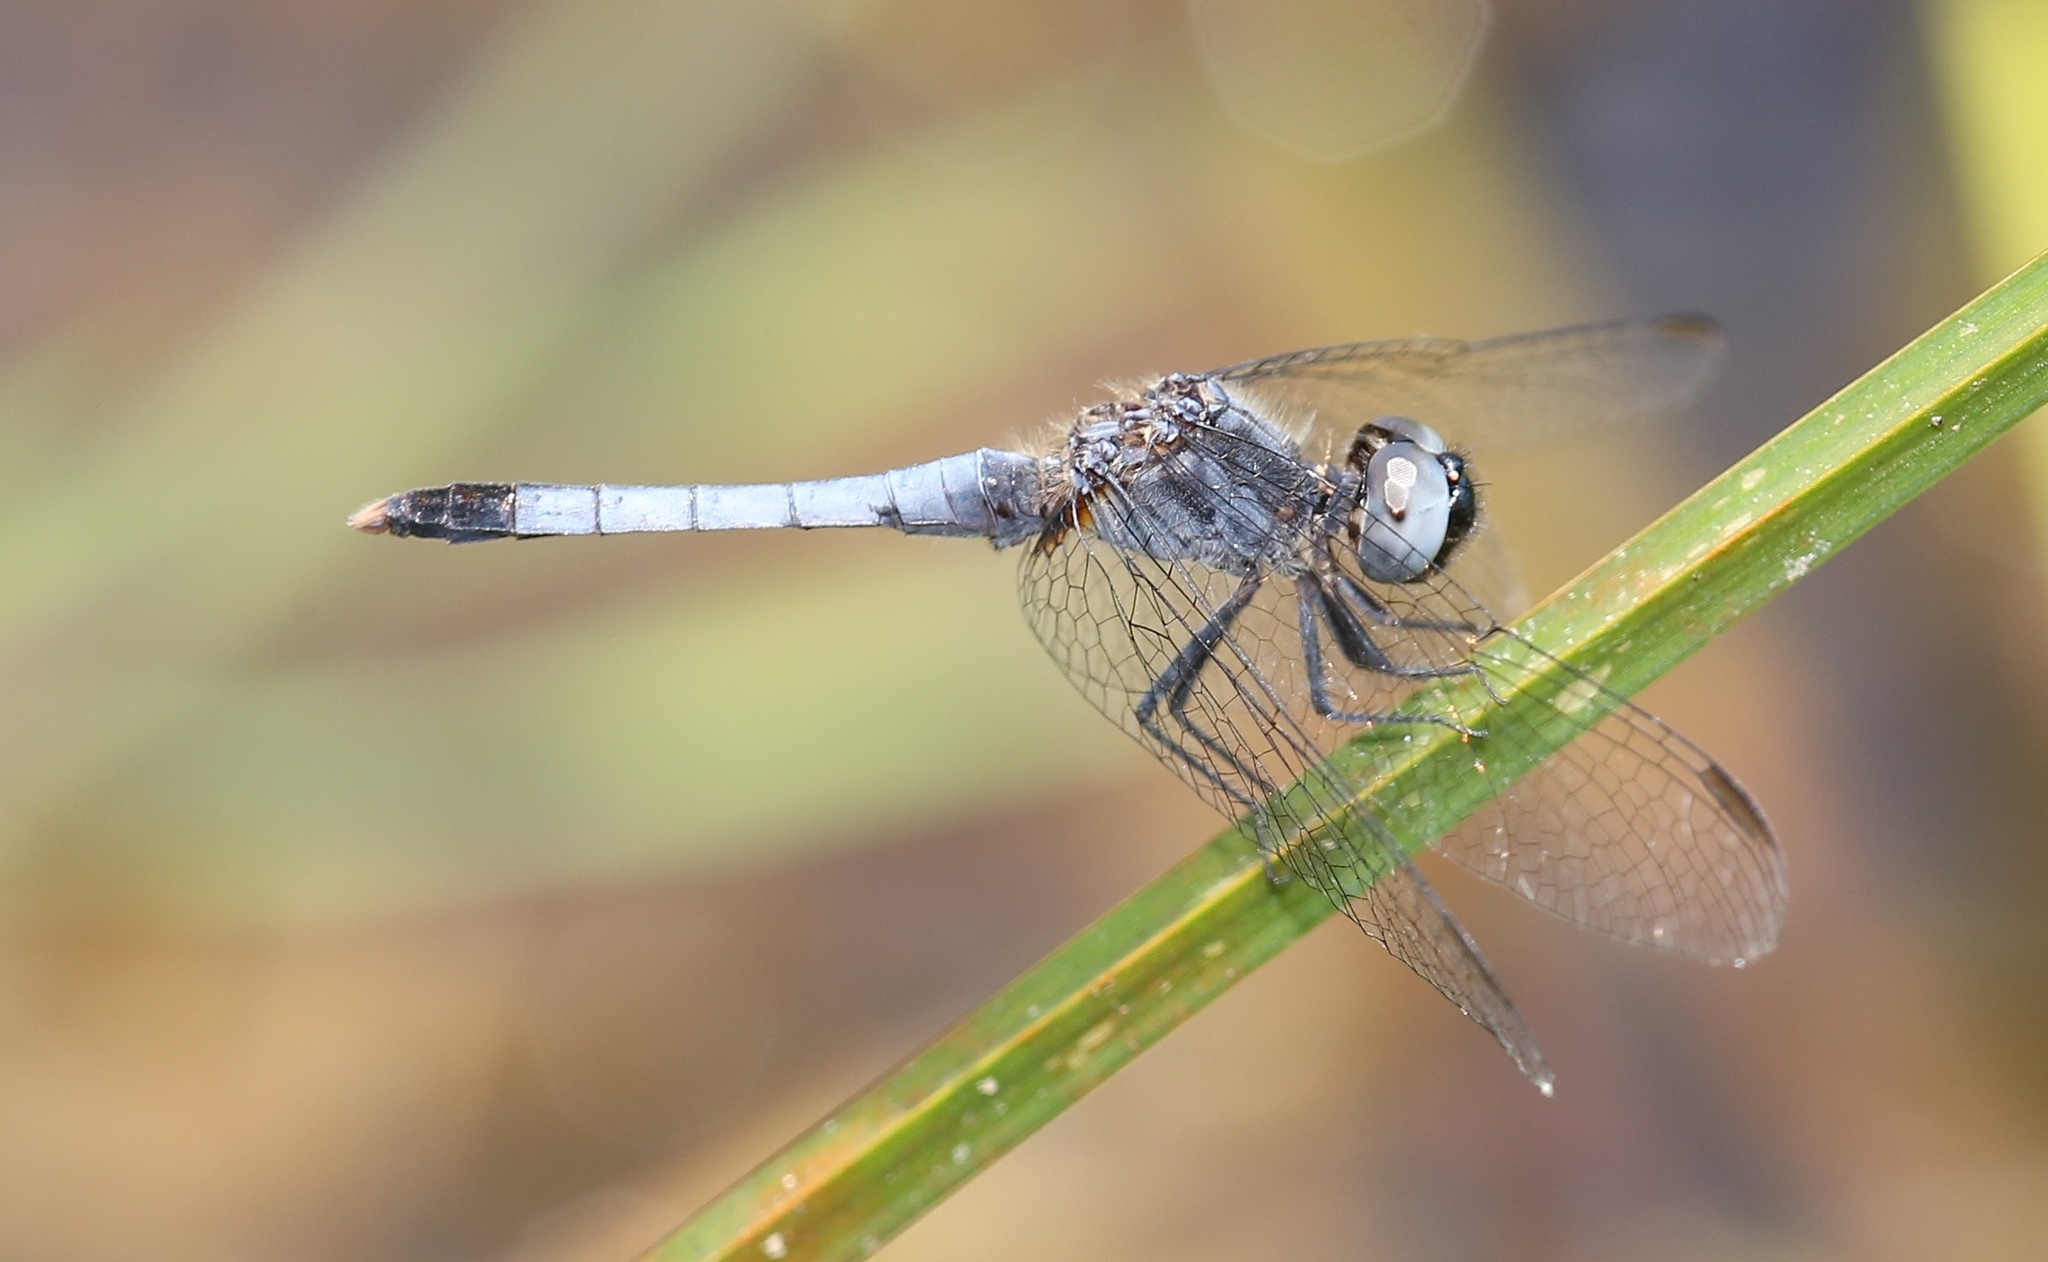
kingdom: Animalia
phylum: Arthropoda
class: Insecta
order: Odonata
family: Libellulidae
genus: Erythrodiplax
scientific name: Erythrodiplax minuscula
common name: Little blue dragonlet
